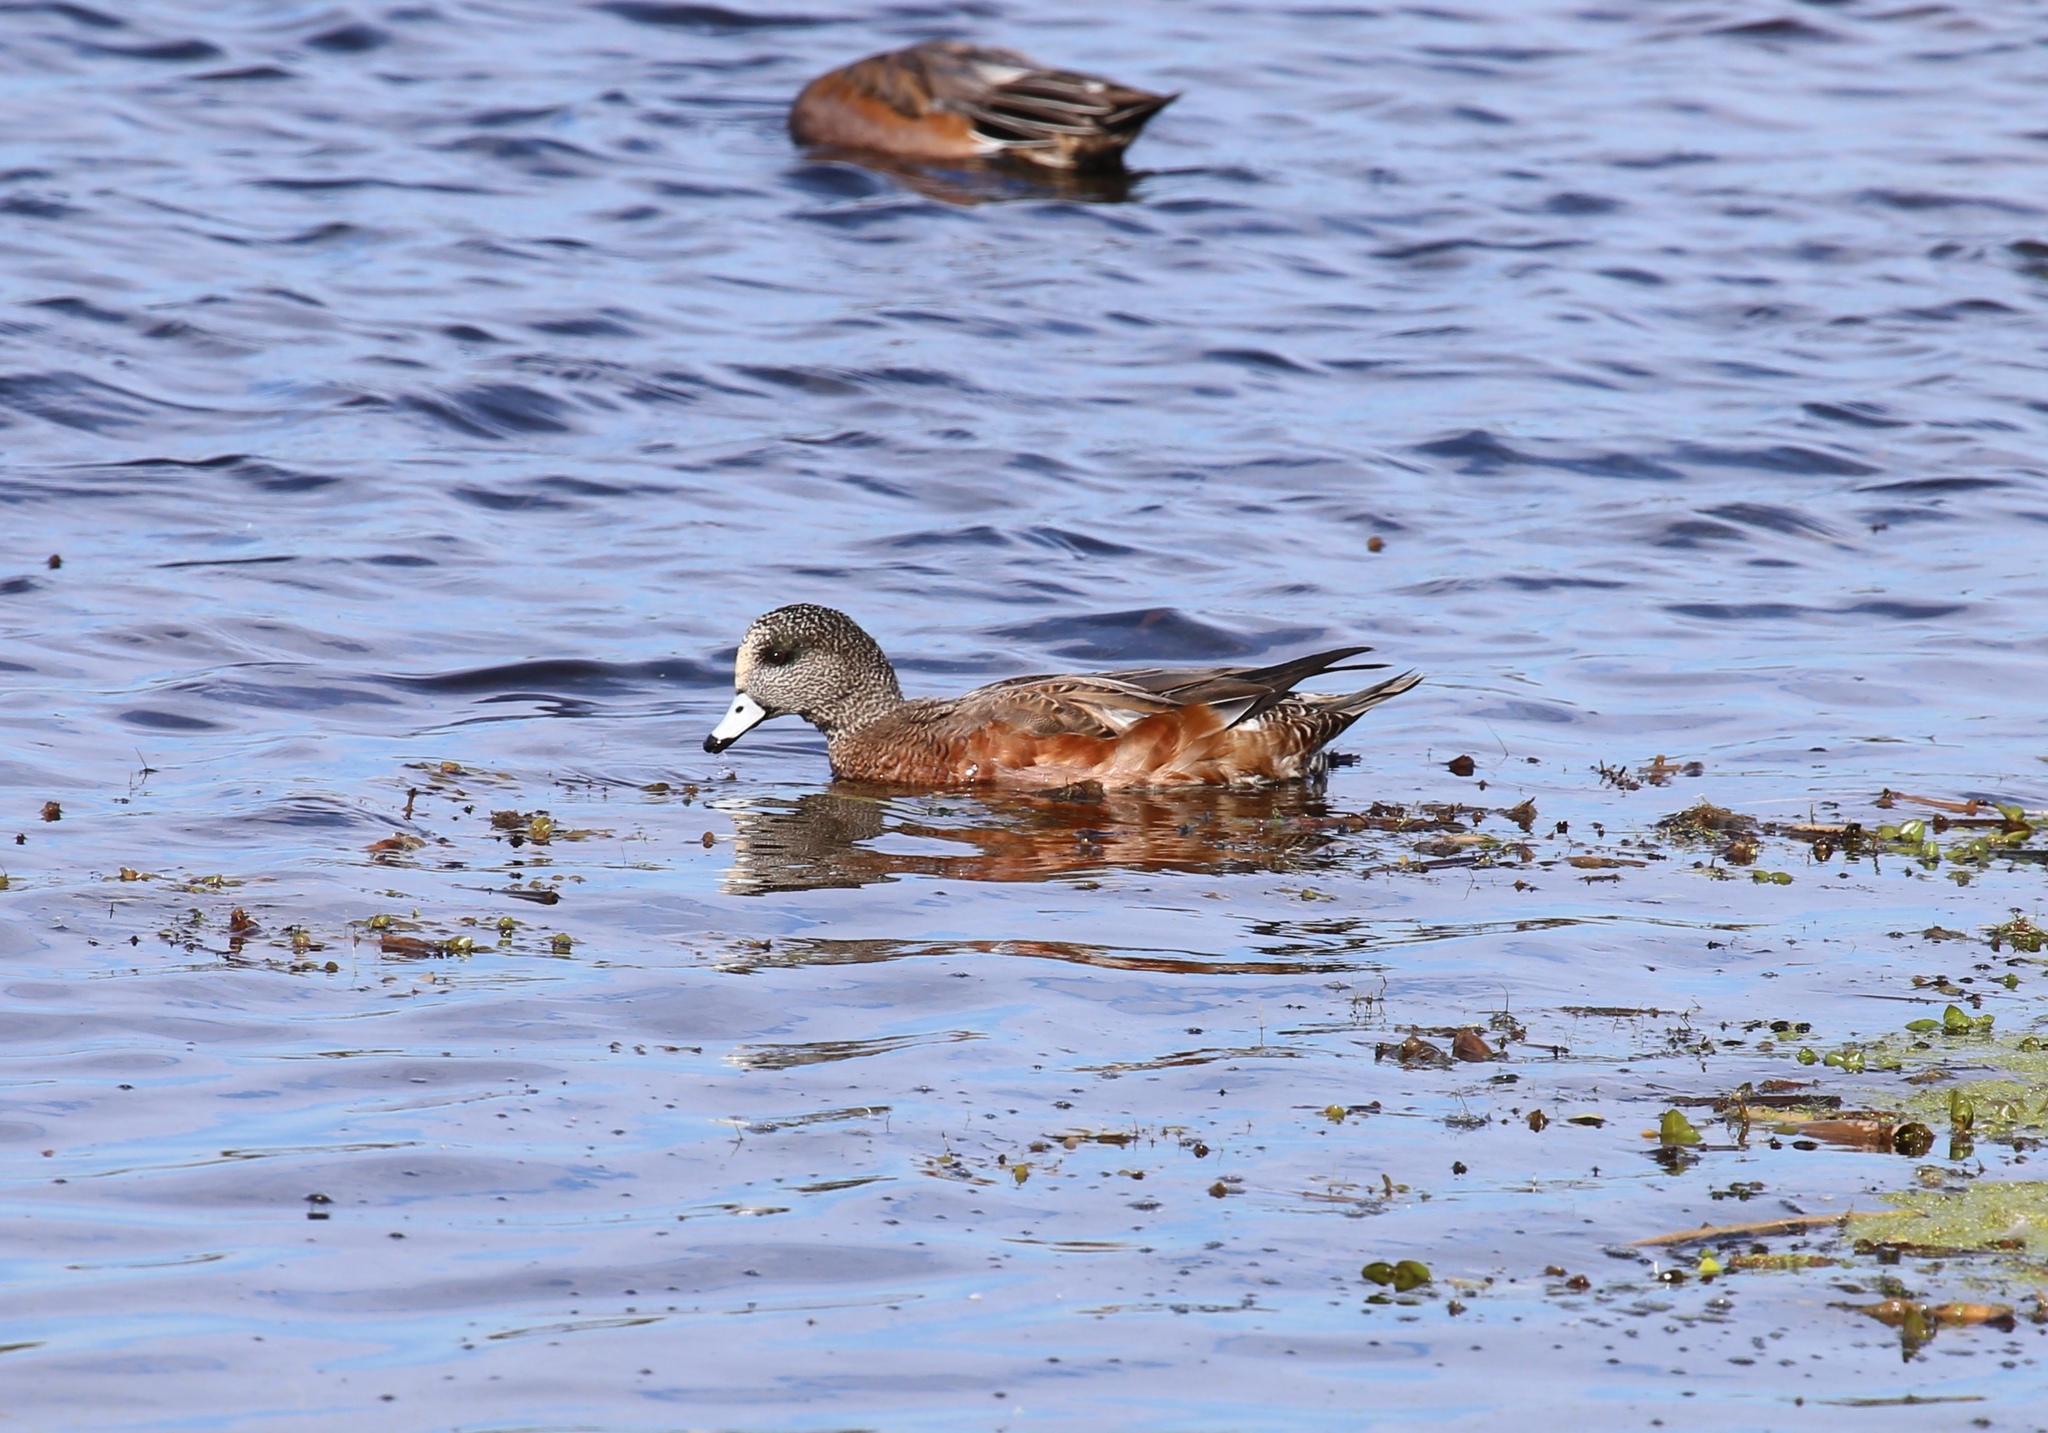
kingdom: Animalia
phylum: Chordata
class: Aves
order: Anseriformes
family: Anatidae
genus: Mareca
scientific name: Mareca americana
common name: American wigeon
